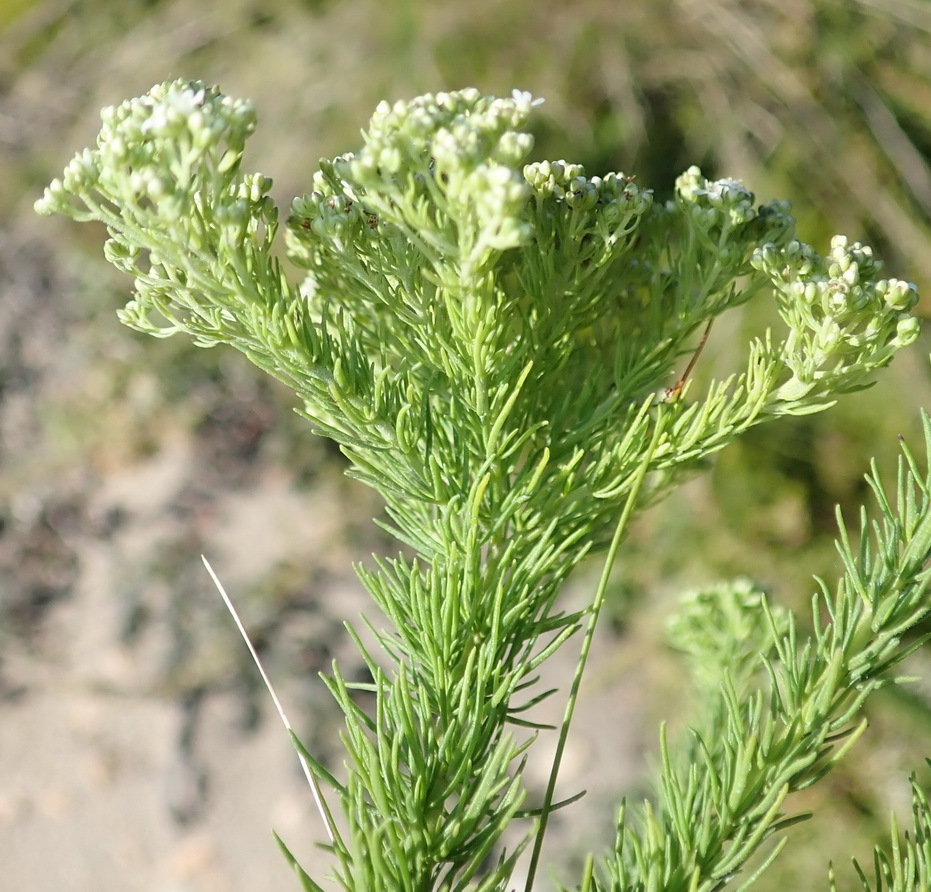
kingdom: Plantae
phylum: Tracheophyta
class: Magnoliopsida
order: Lamiales
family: Scrophulariaceae
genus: Selago
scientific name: Selago corymbosa
